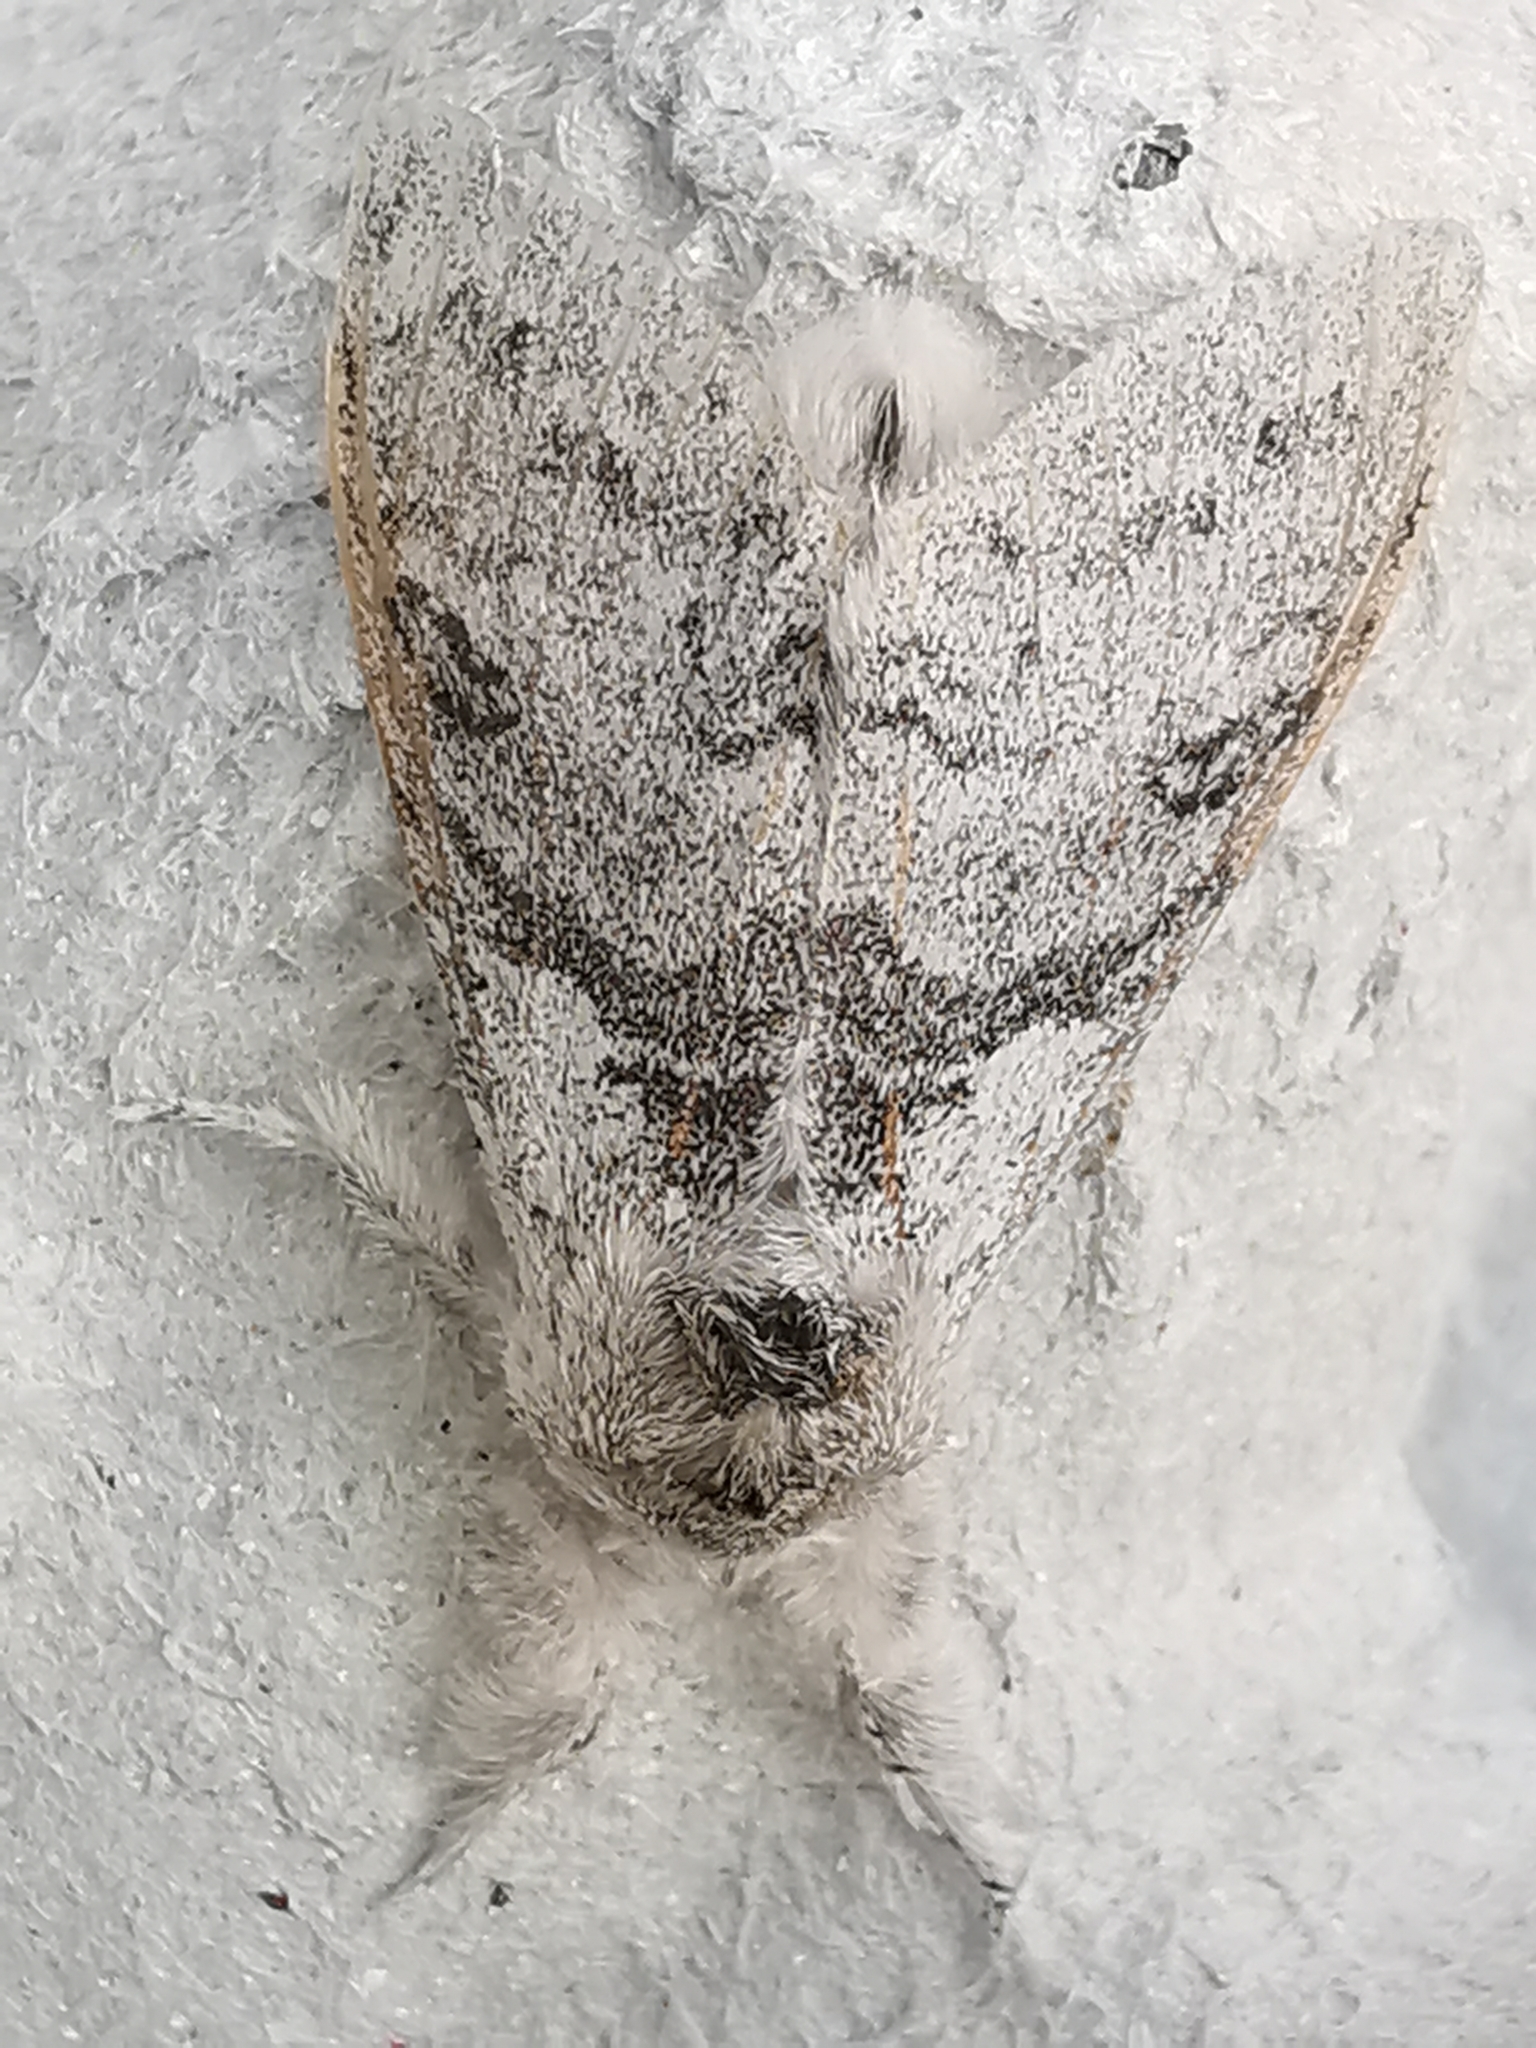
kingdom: Animalia
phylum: Arthropoda
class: Insecta
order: Lepidoptera
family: Erebidae
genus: Calliteara
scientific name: Calliteara pudibunda
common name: Pale tussock
